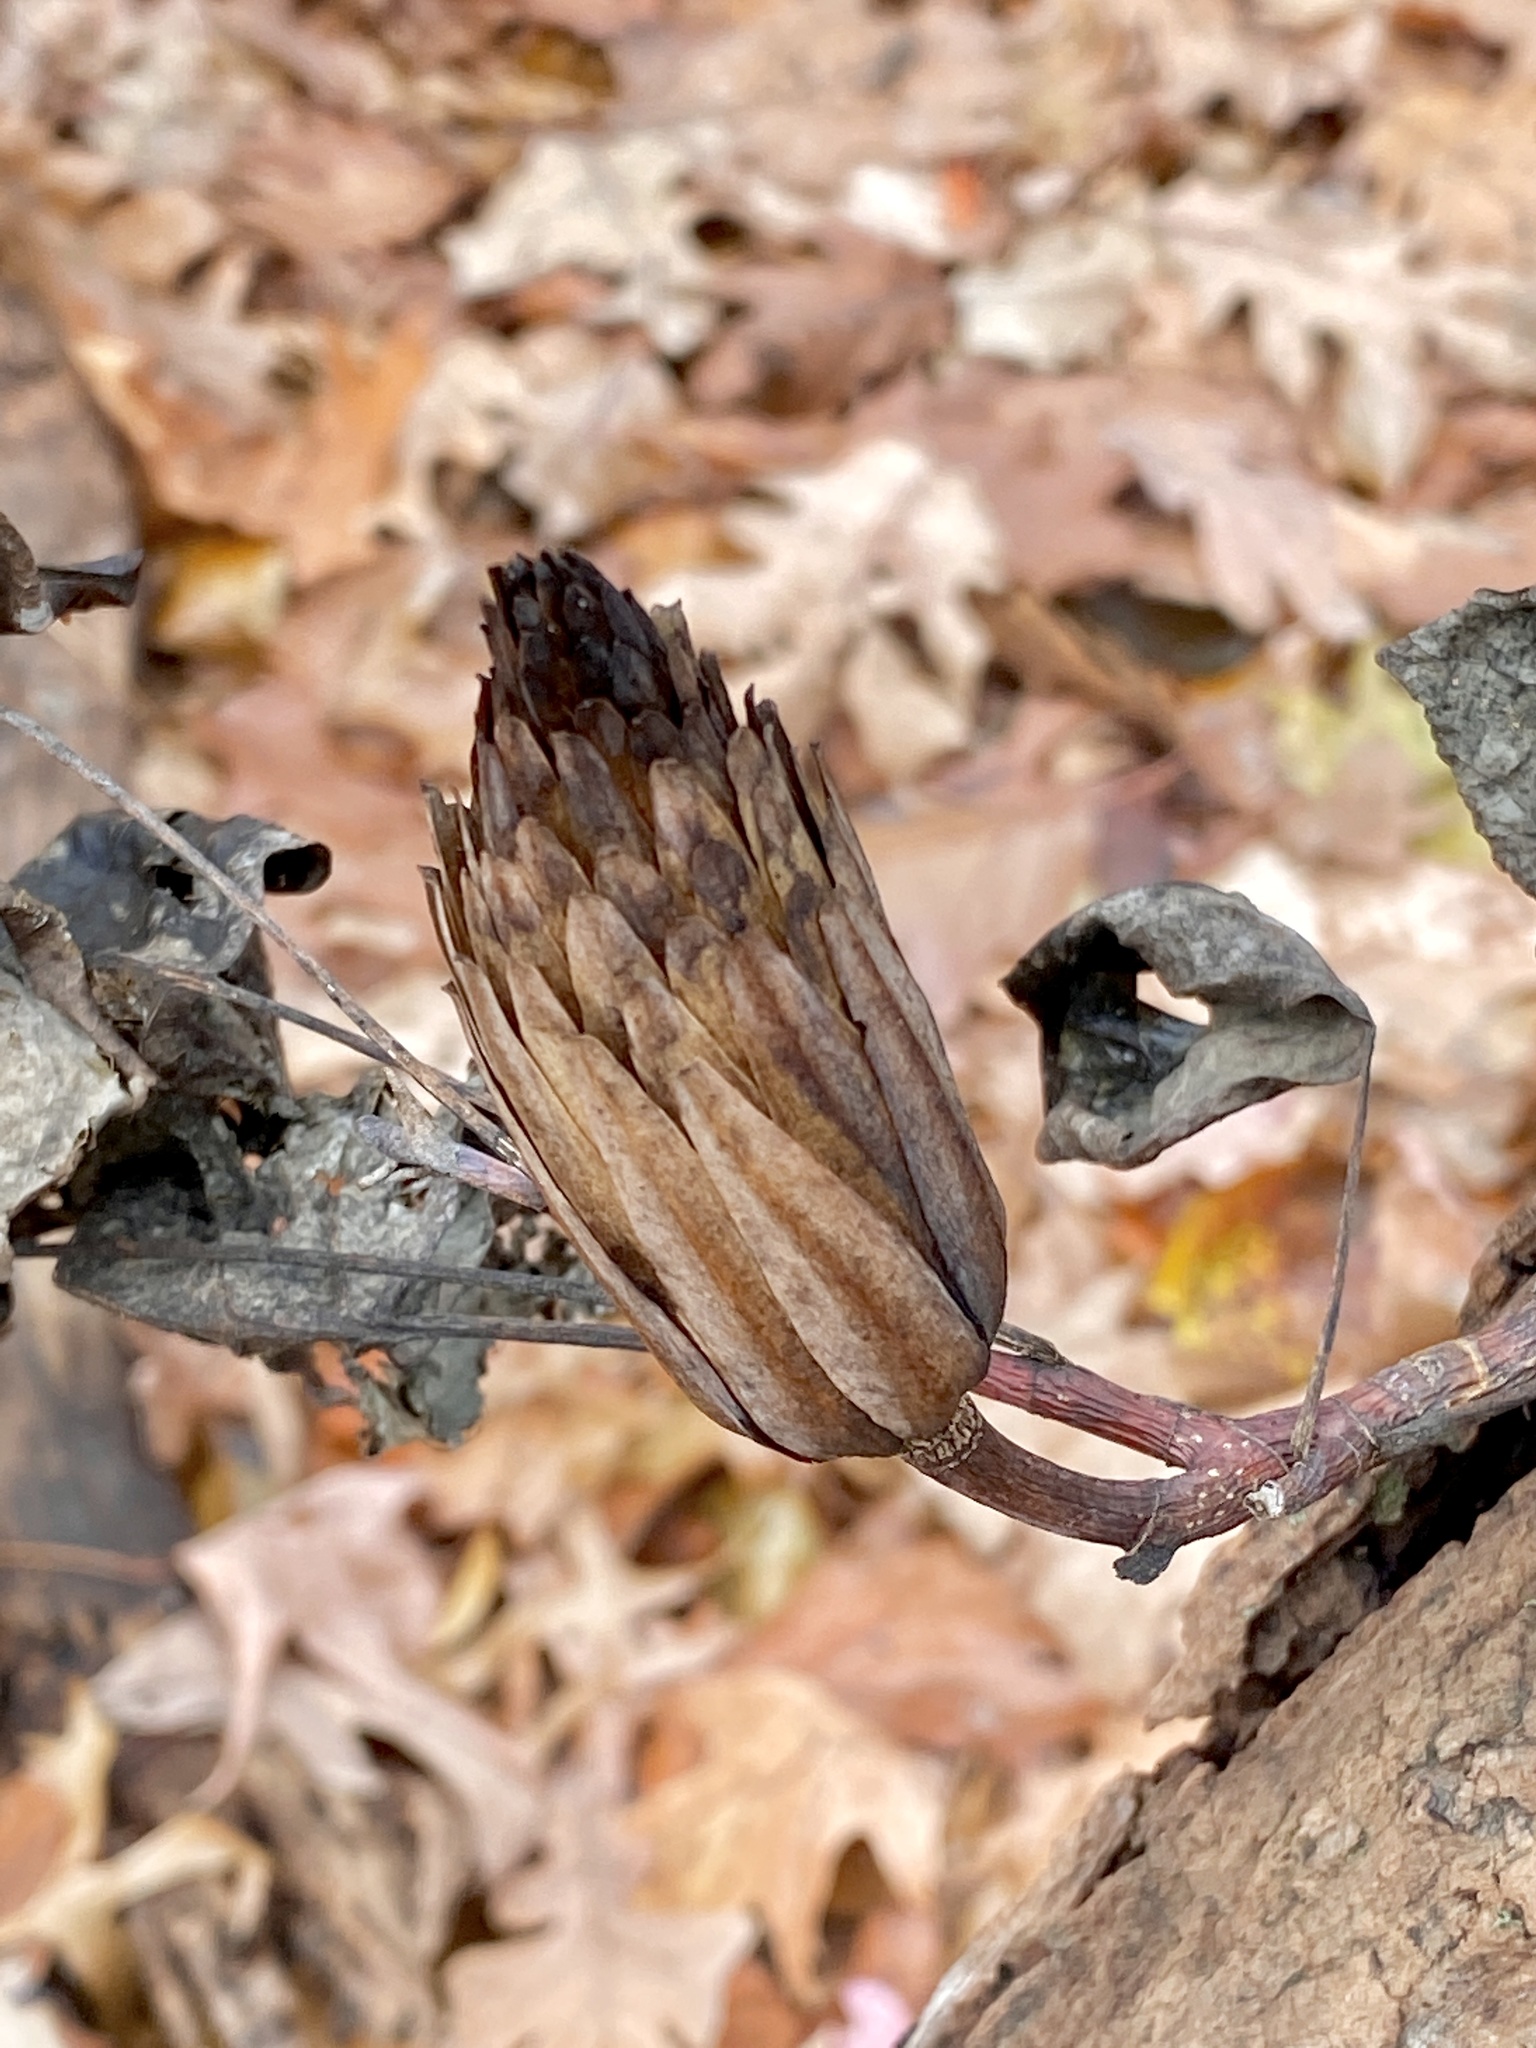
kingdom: Plantae
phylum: Tracheophyta
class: Magnoliopsida
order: Magnoliales
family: Magnoliaceae
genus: Liriodendron
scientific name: Liriodendron tulipifera
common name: Tulip tree
